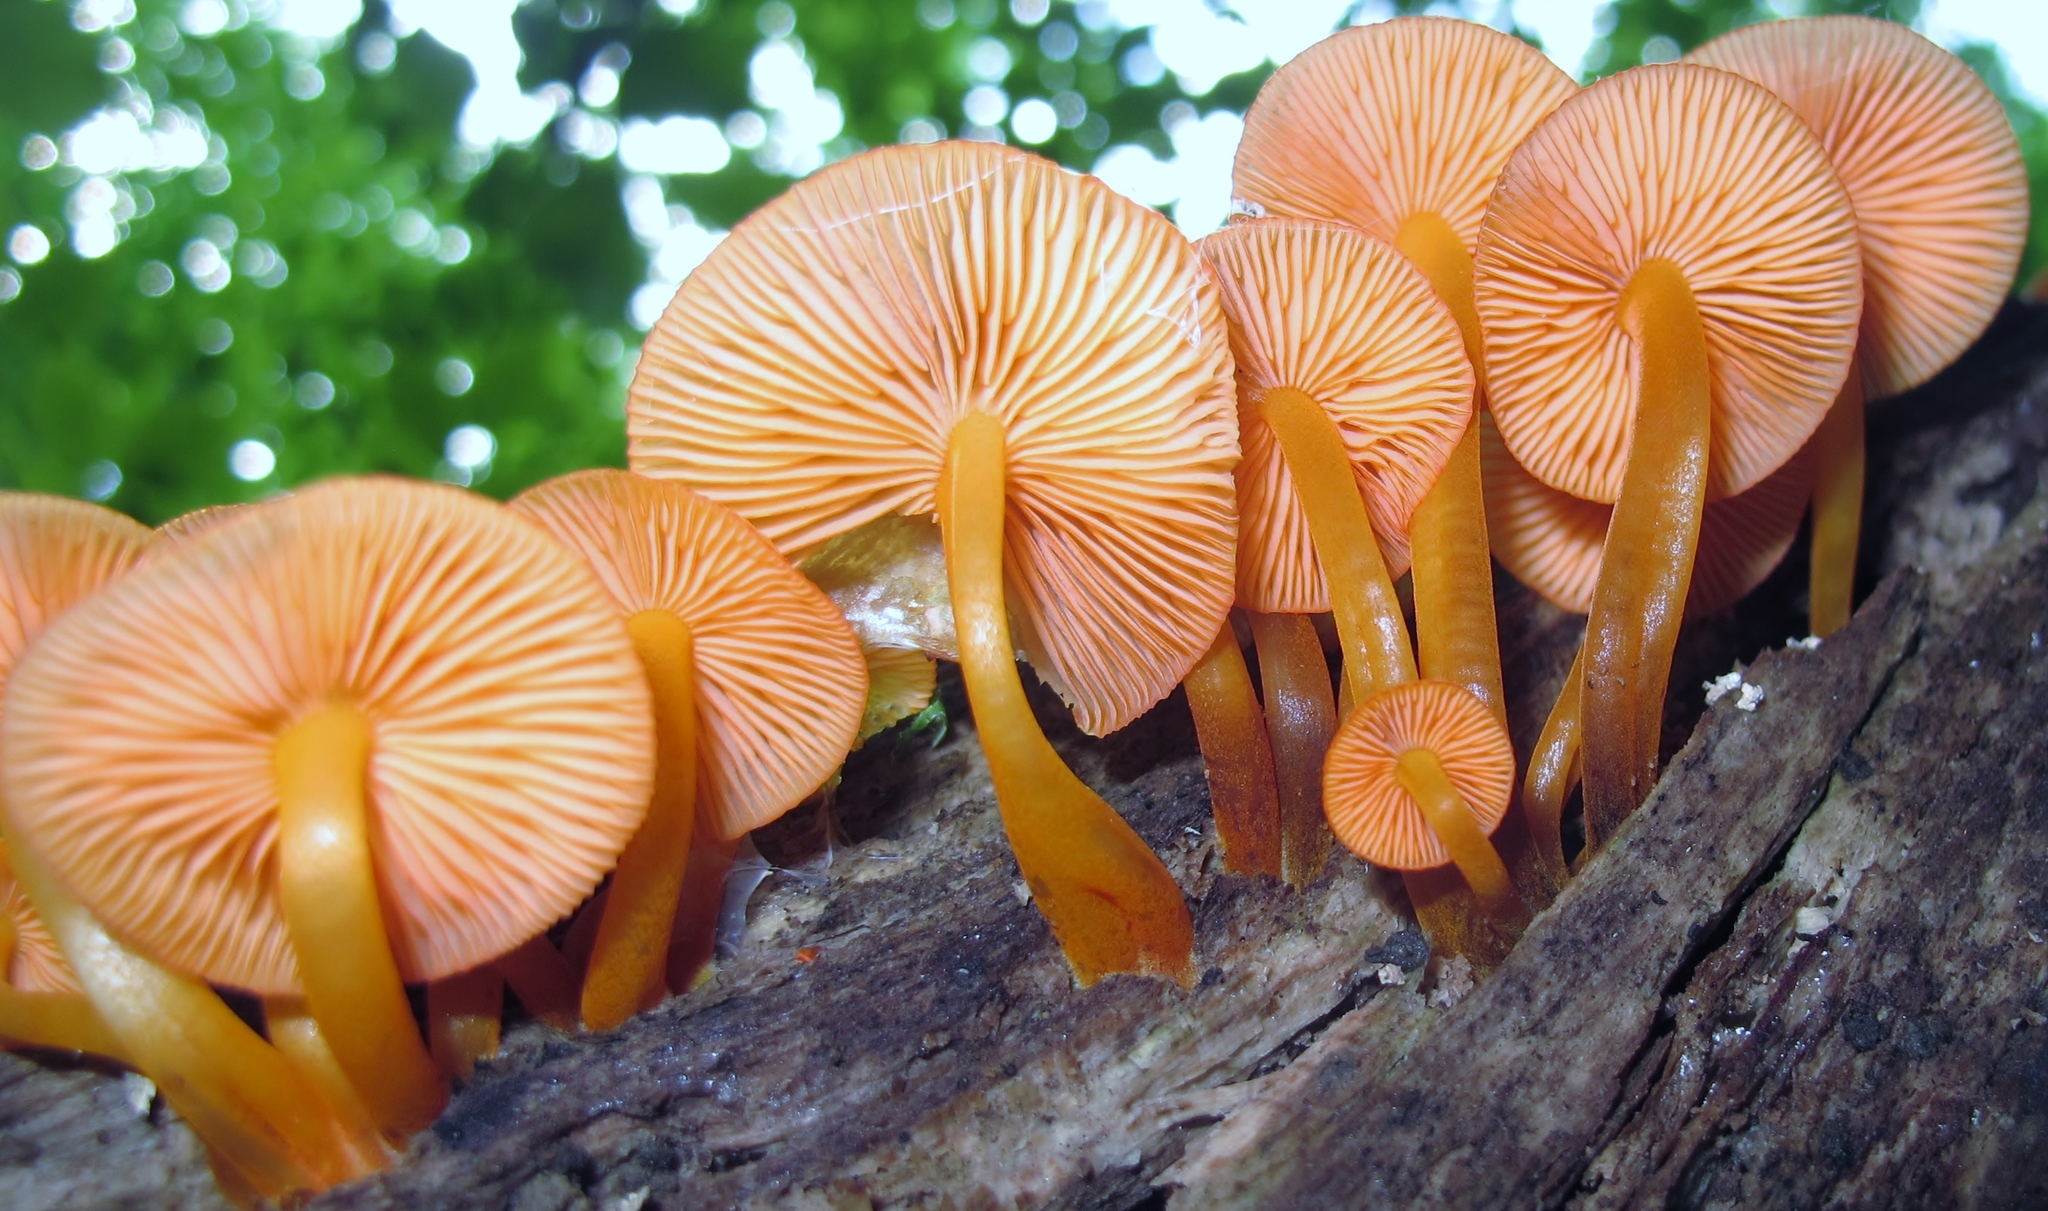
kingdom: Fungi
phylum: Basidiomycota
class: Agaricomycetes
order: Agaricales
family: Mycenaceae
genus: Mycena
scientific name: Mycena leaiana
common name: Orange mycena
